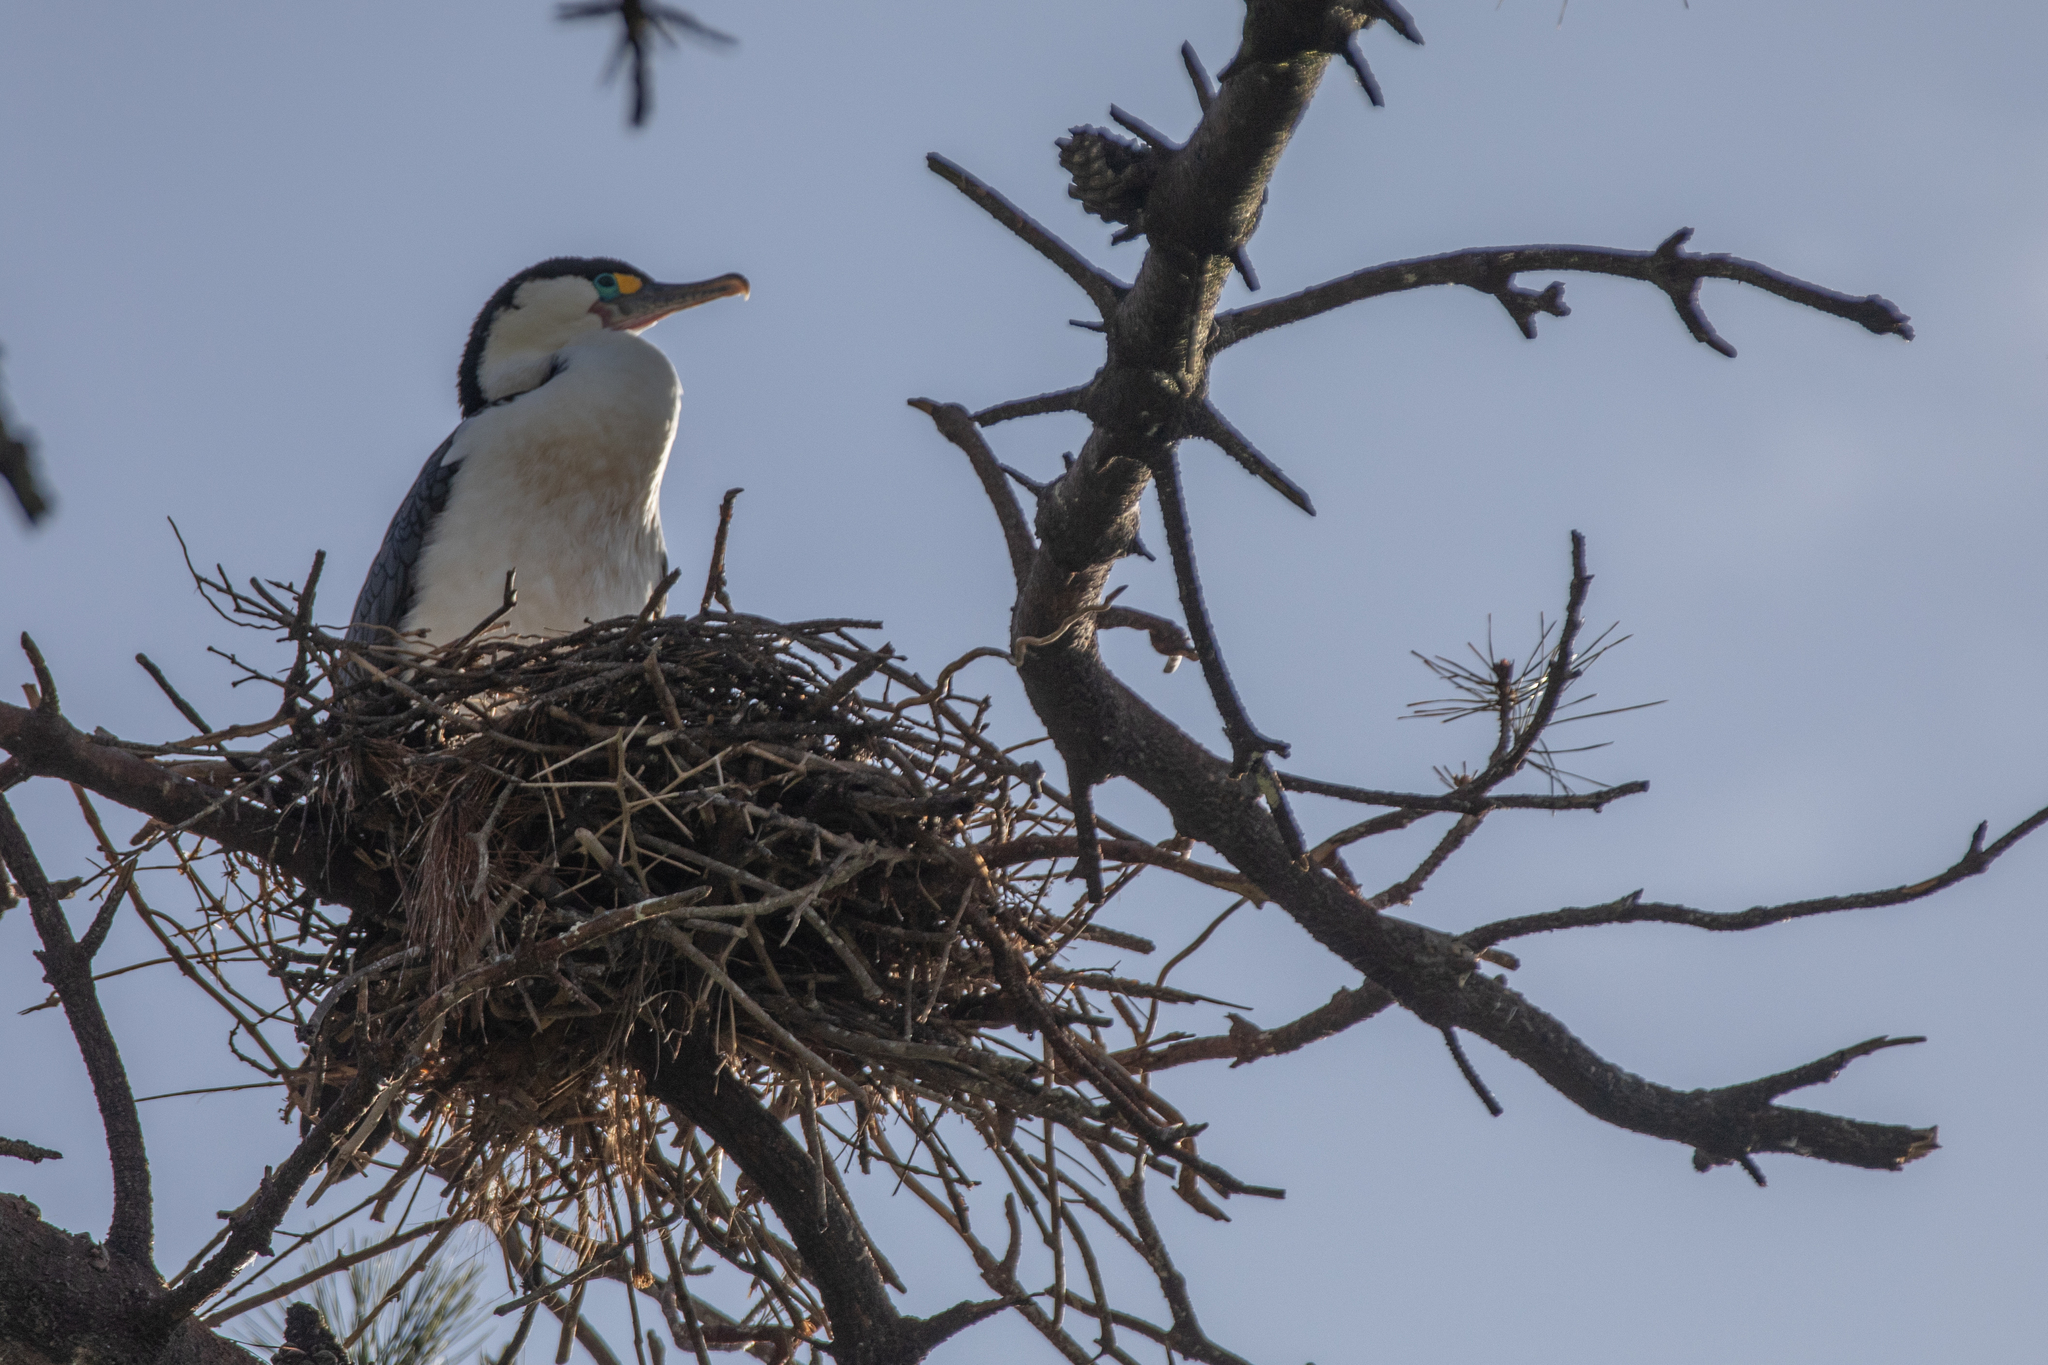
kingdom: Animalia
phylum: Chordata
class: Aves
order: Suliformes
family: Phalacrocoracidae
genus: Phalacrocorax
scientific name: Phalacrocorax varius
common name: Pied cormorant
